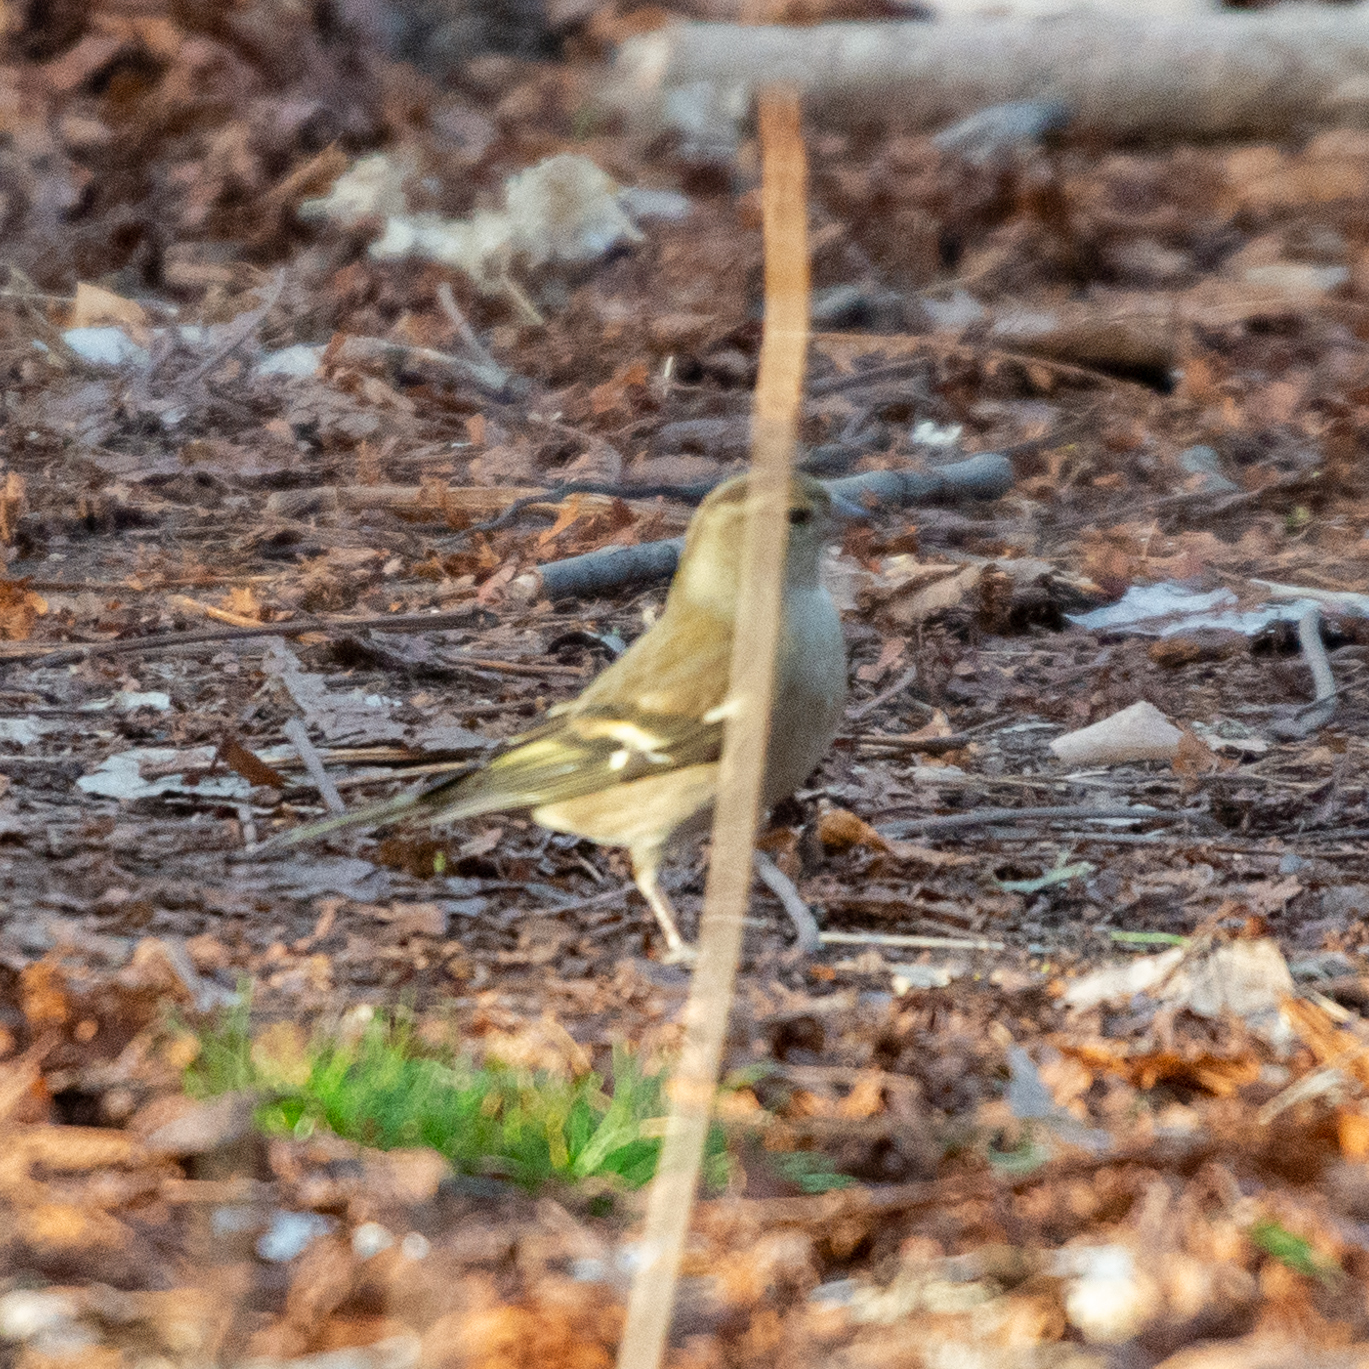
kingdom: Animalia
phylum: Chordata
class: Aves
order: Passeriformes
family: Fringillidae
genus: Fringilla
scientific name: Fringilla coelebs
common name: Common chaffinch
